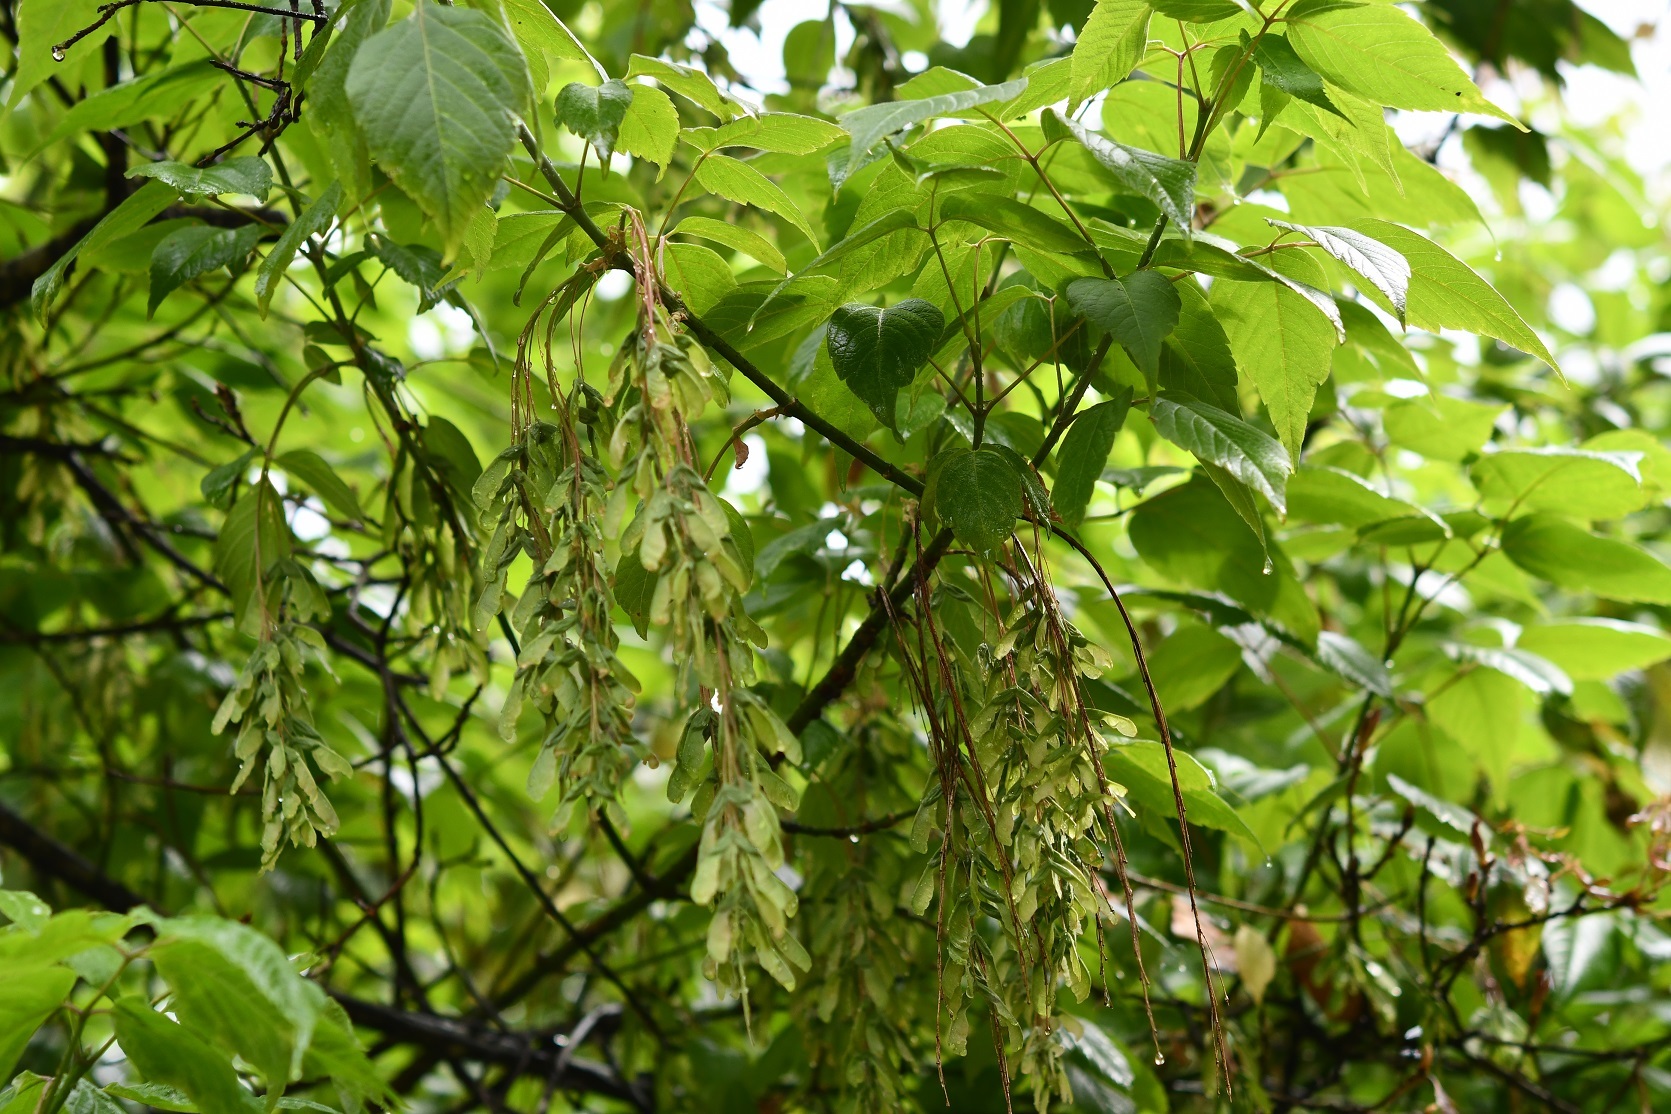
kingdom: Plantae
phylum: Tracheophyta
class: Magnoliopsida
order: Sapindales
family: Sapindaceae
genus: Acer
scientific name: Acer negundo
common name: Ashleaf maple
